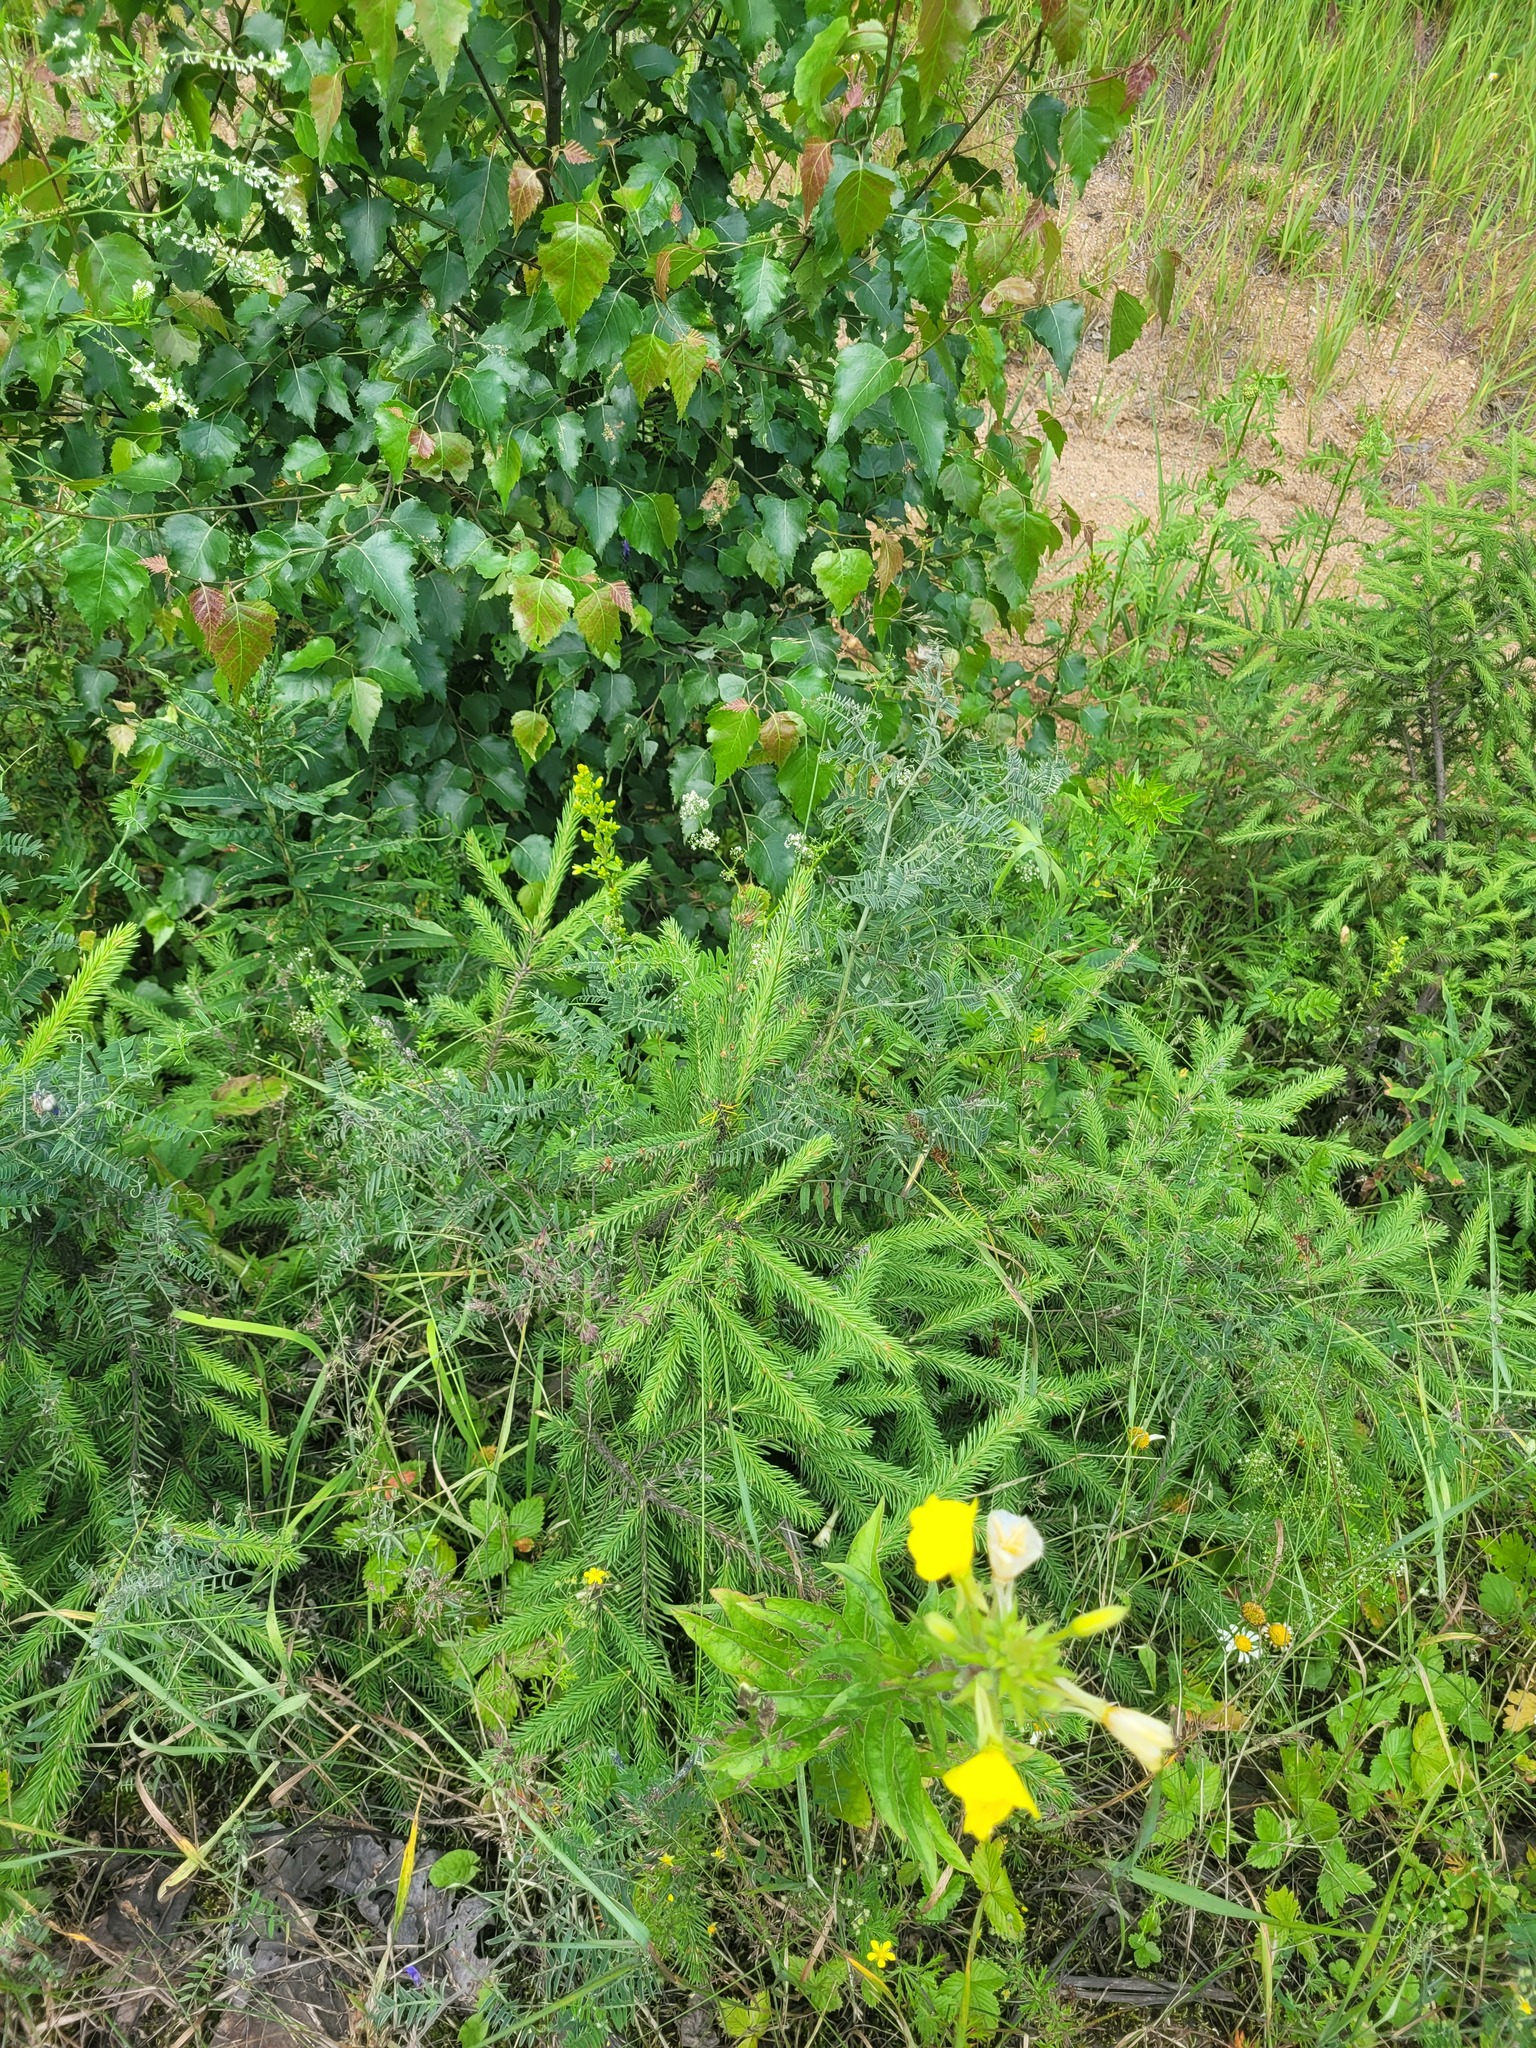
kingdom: Plantae
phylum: Tracheophyta
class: Pinopsida
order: Pinales
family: Pinaceae
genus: Picea
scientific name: Picea abies
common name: Norway spruce
